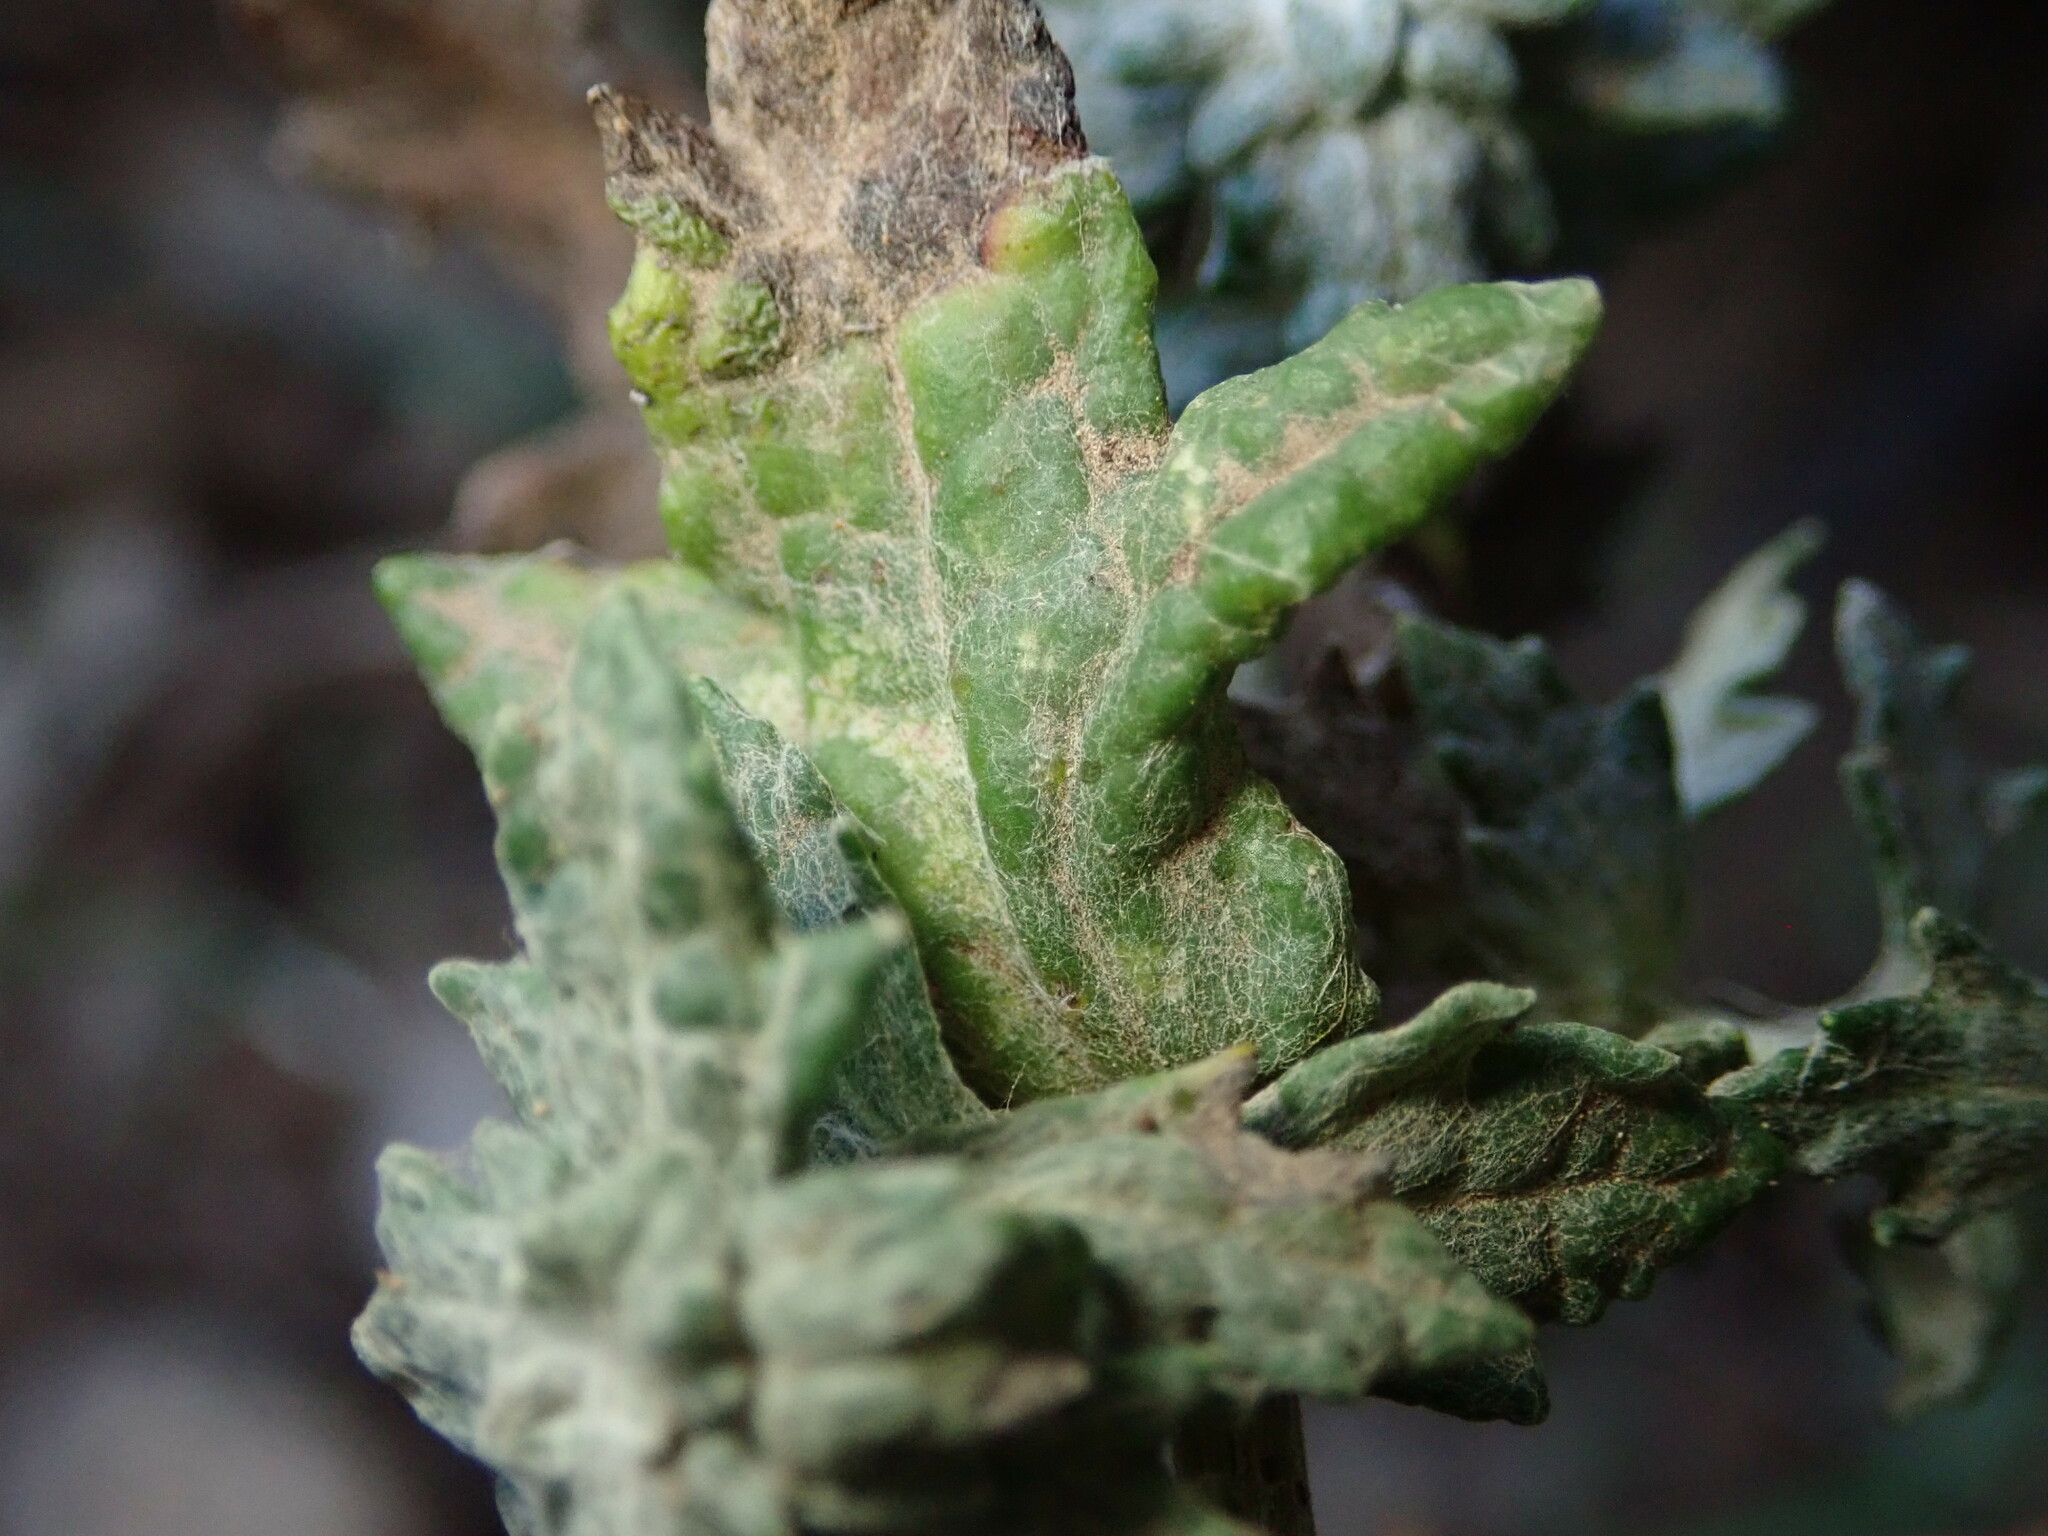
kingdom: Plantae
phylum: Tracheophyta
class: Magnoliopsida
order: Asterales
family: Asteraceae
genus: Eriophyllum
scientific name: Eriophyllum lanatum
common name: Common woolly-sunflower
